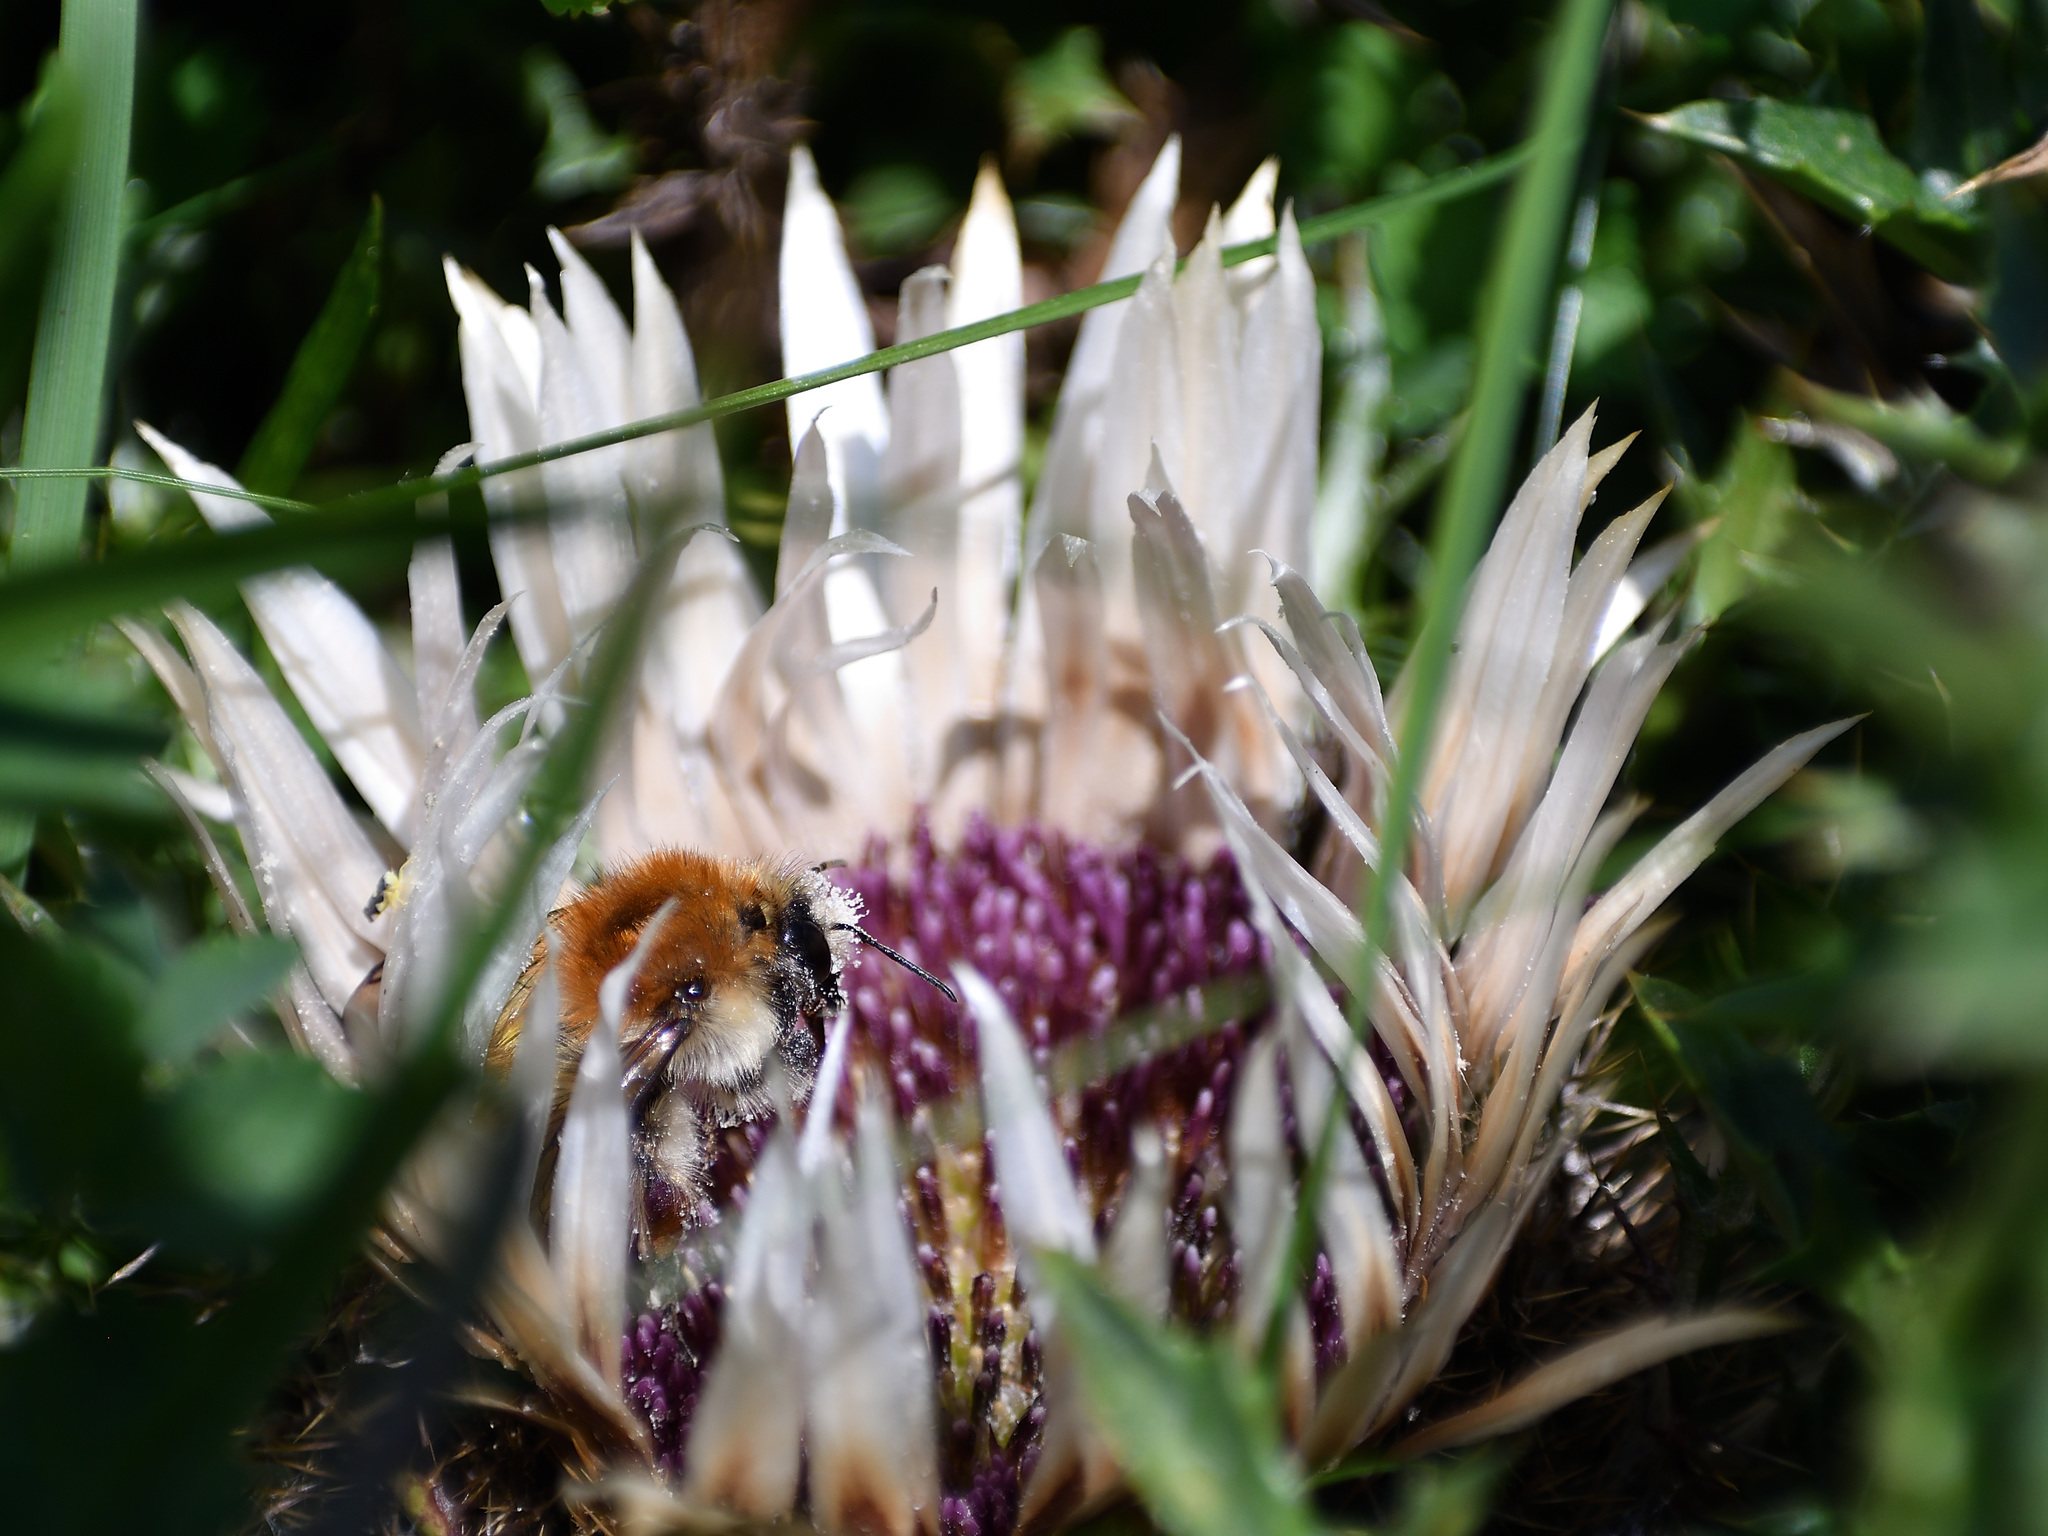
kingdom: Animalia
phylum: Arthropoda
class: Insecta
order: Hymenoptera
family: Apidae
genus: Bombus
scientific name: Bombus humilis
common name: Brown-banded carder-bee
